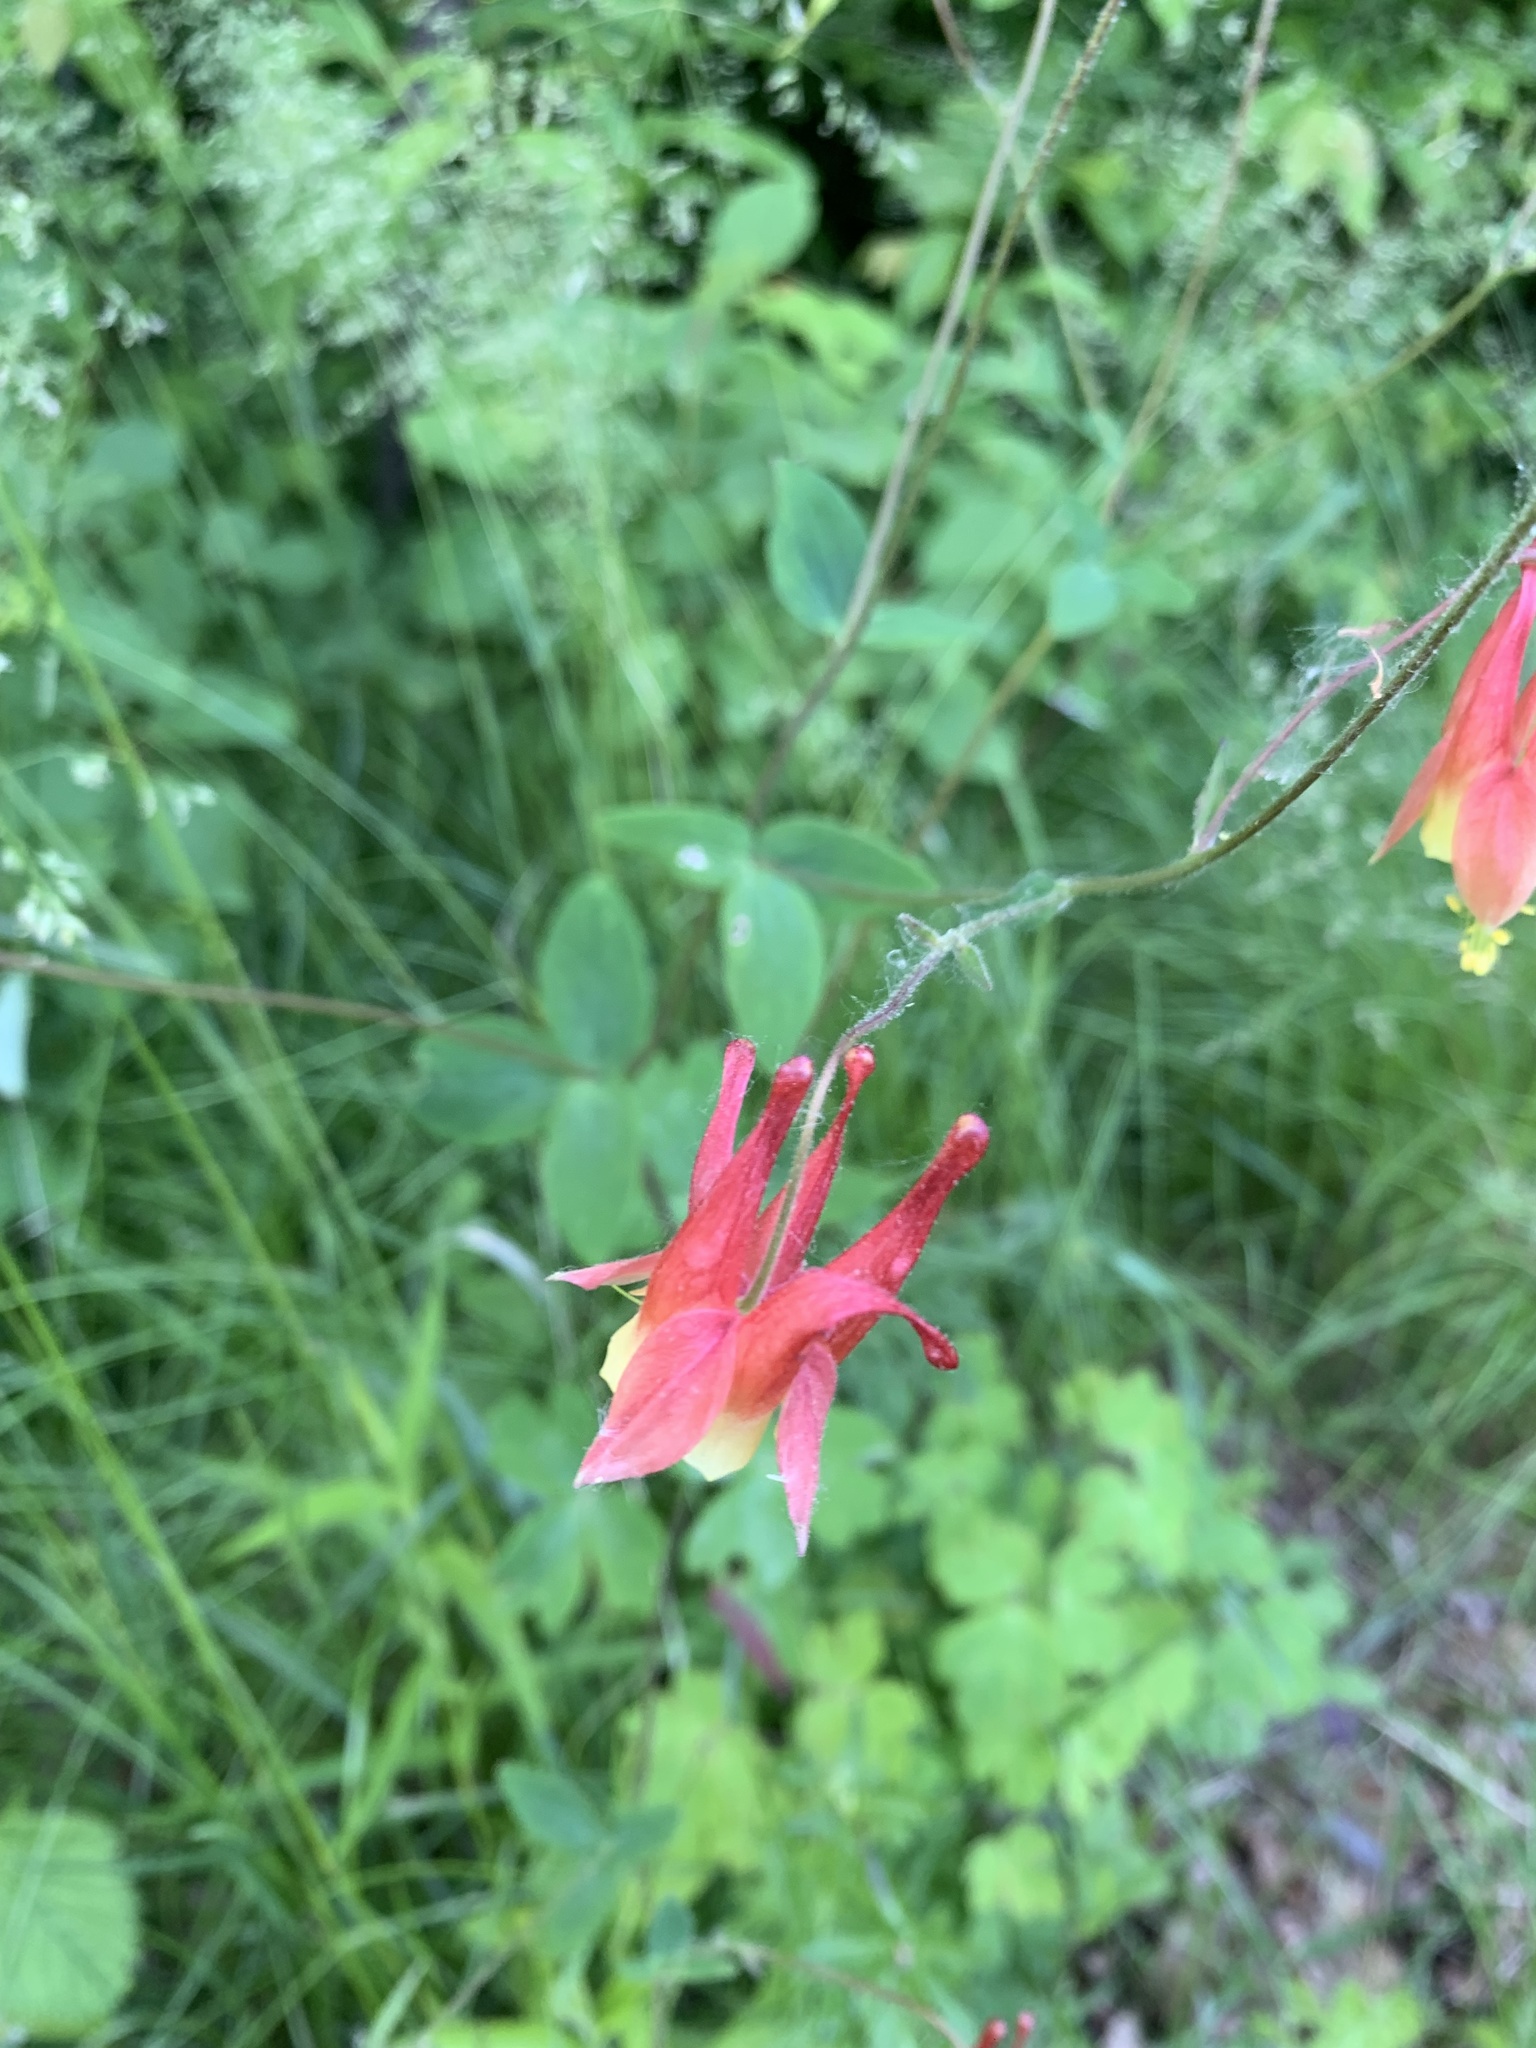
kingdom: Plantae
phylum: Tracheophyta
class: Magnoliopsida
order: Ranunculales
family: Ranunculaceae
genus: Aquilegia
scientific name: Aquilegia canadensis
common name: American columbine
